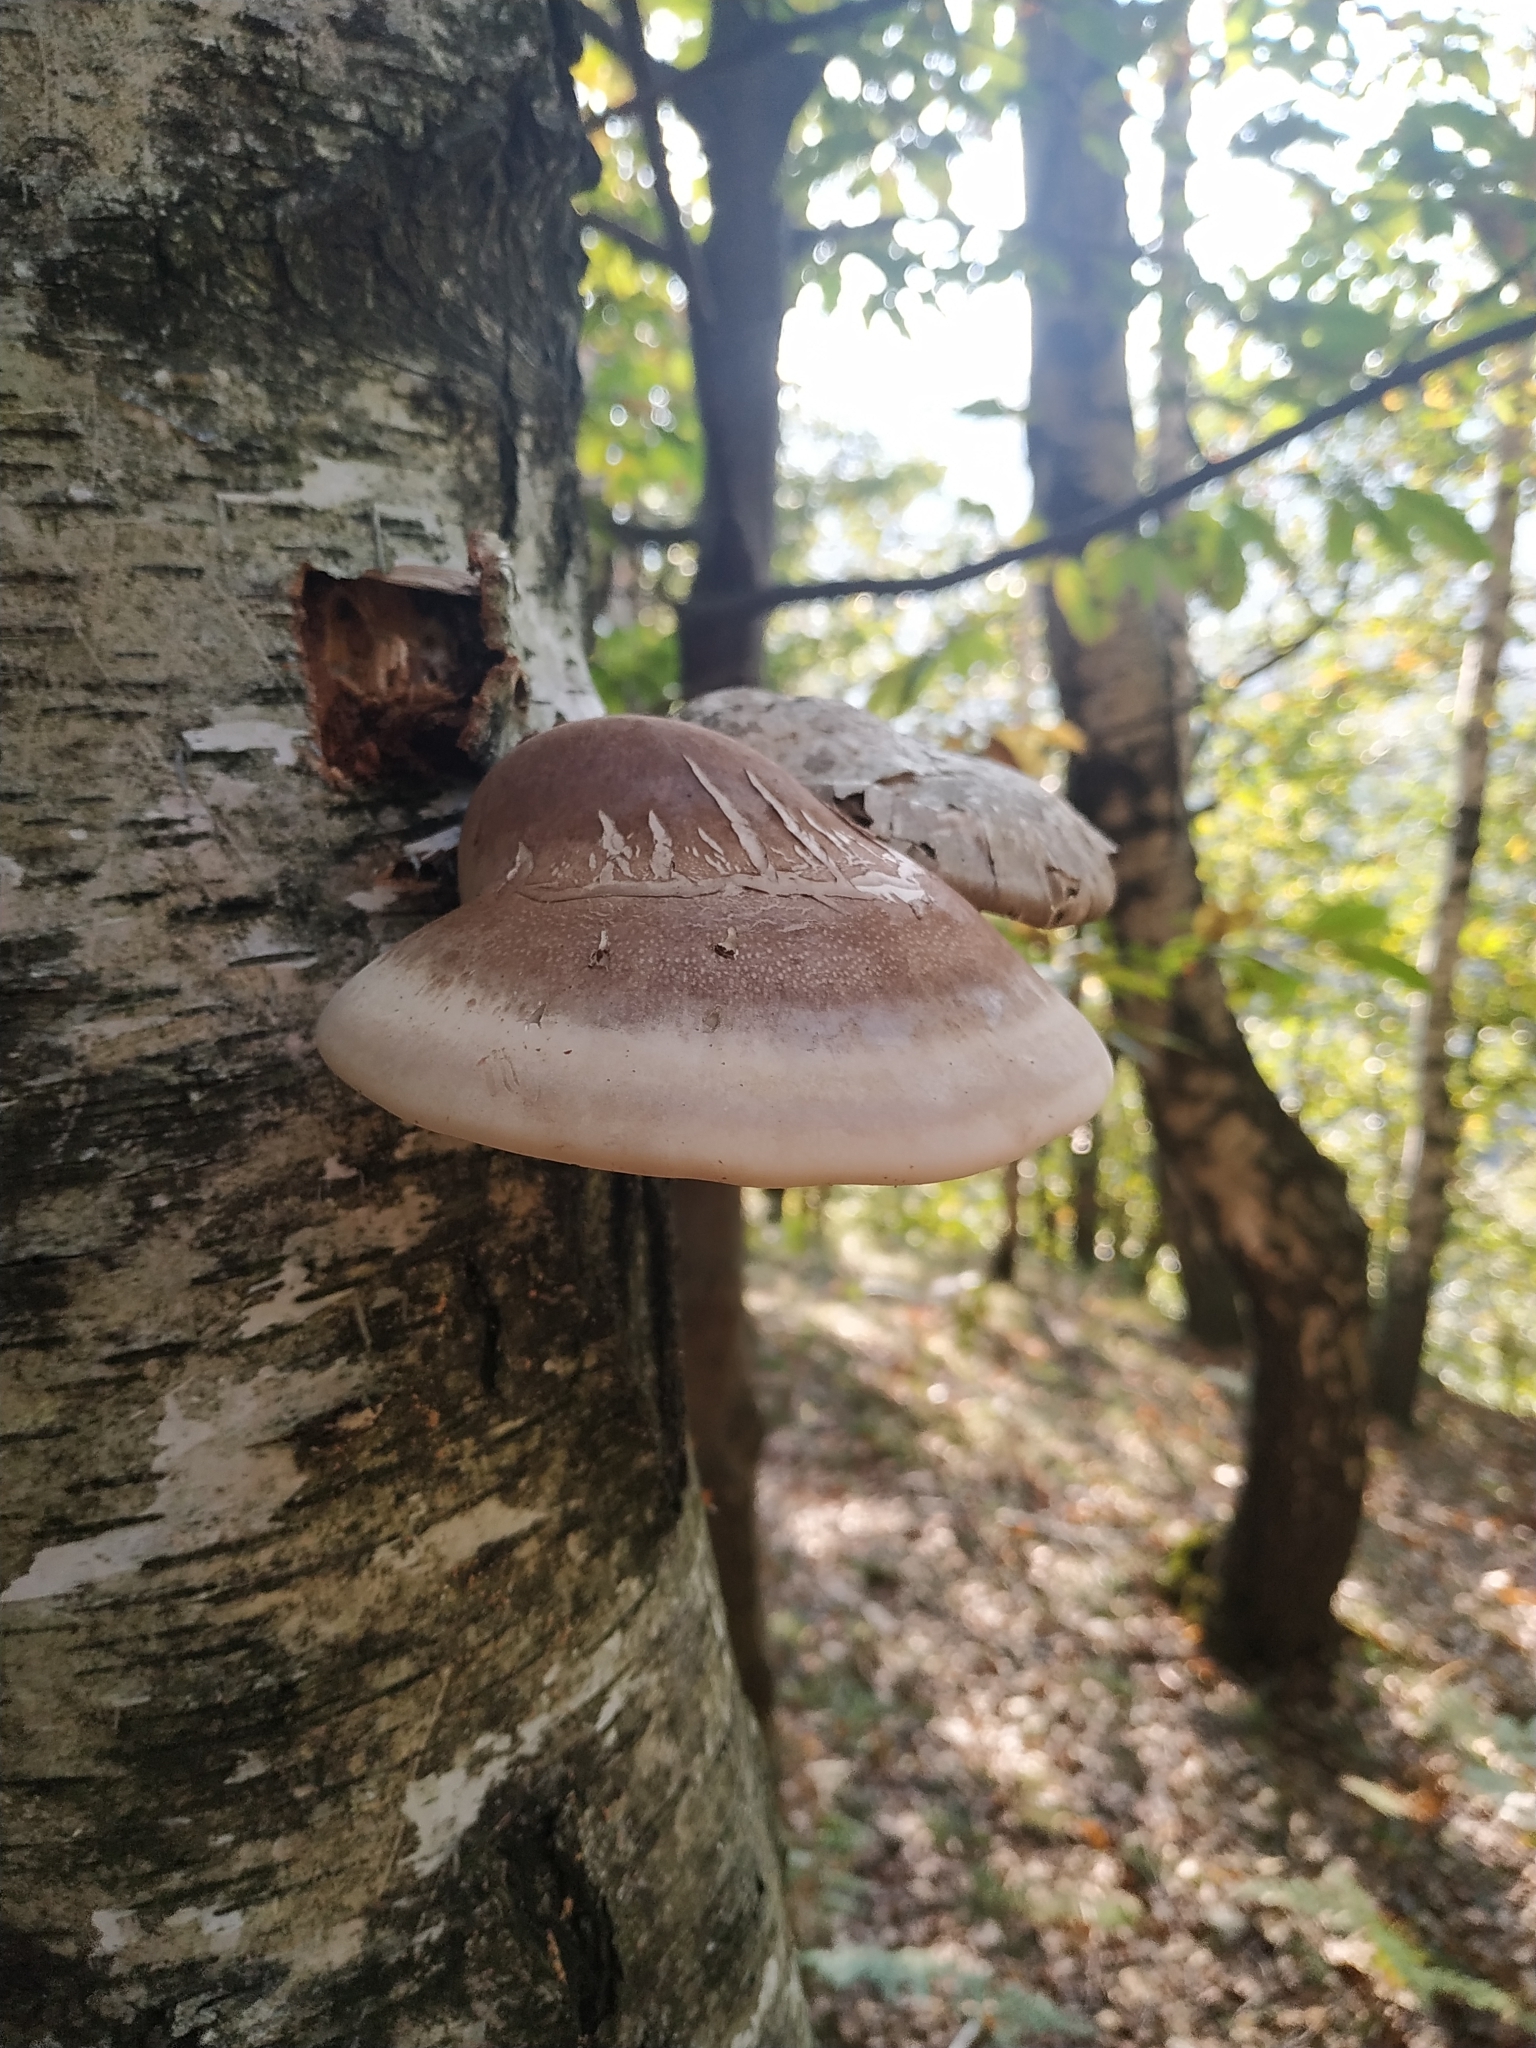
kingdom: Fungi
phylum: Basidiomycota
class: Agaricomycetes
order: Polyporales
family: Fomitopsidaceae
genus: Fomitopsis
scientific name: Fomitopsis betulina
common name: Birch polypore
